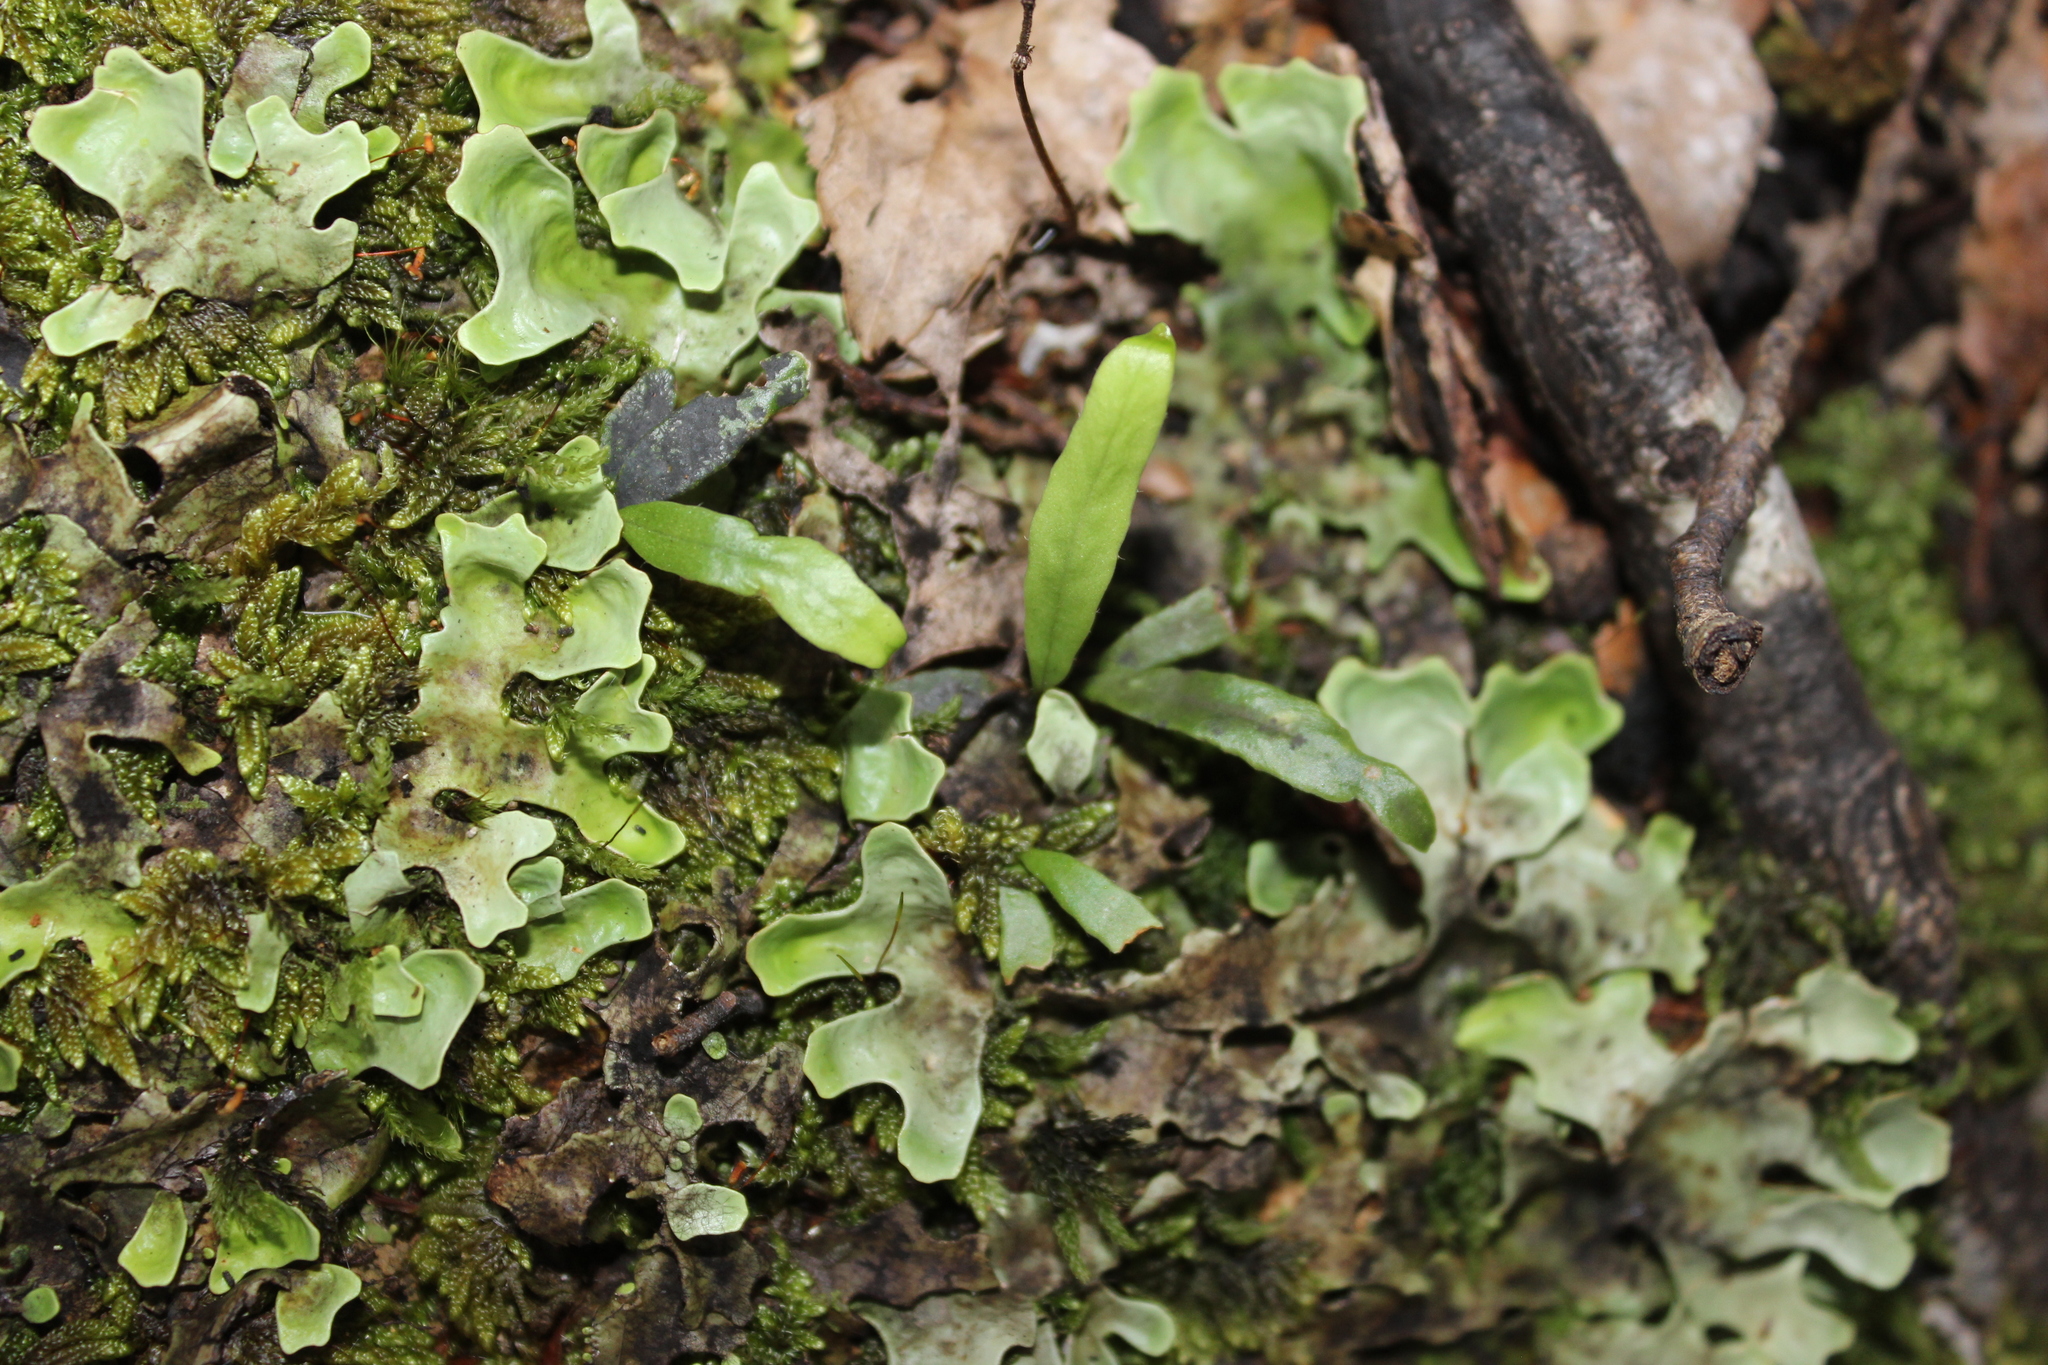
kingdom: Plantae
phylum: Tracheophyta
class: Polypodiopsida
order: Polypodiales
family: Polypodiaceae
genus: Notogrammitis
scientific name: Notogrammitis billardierei
